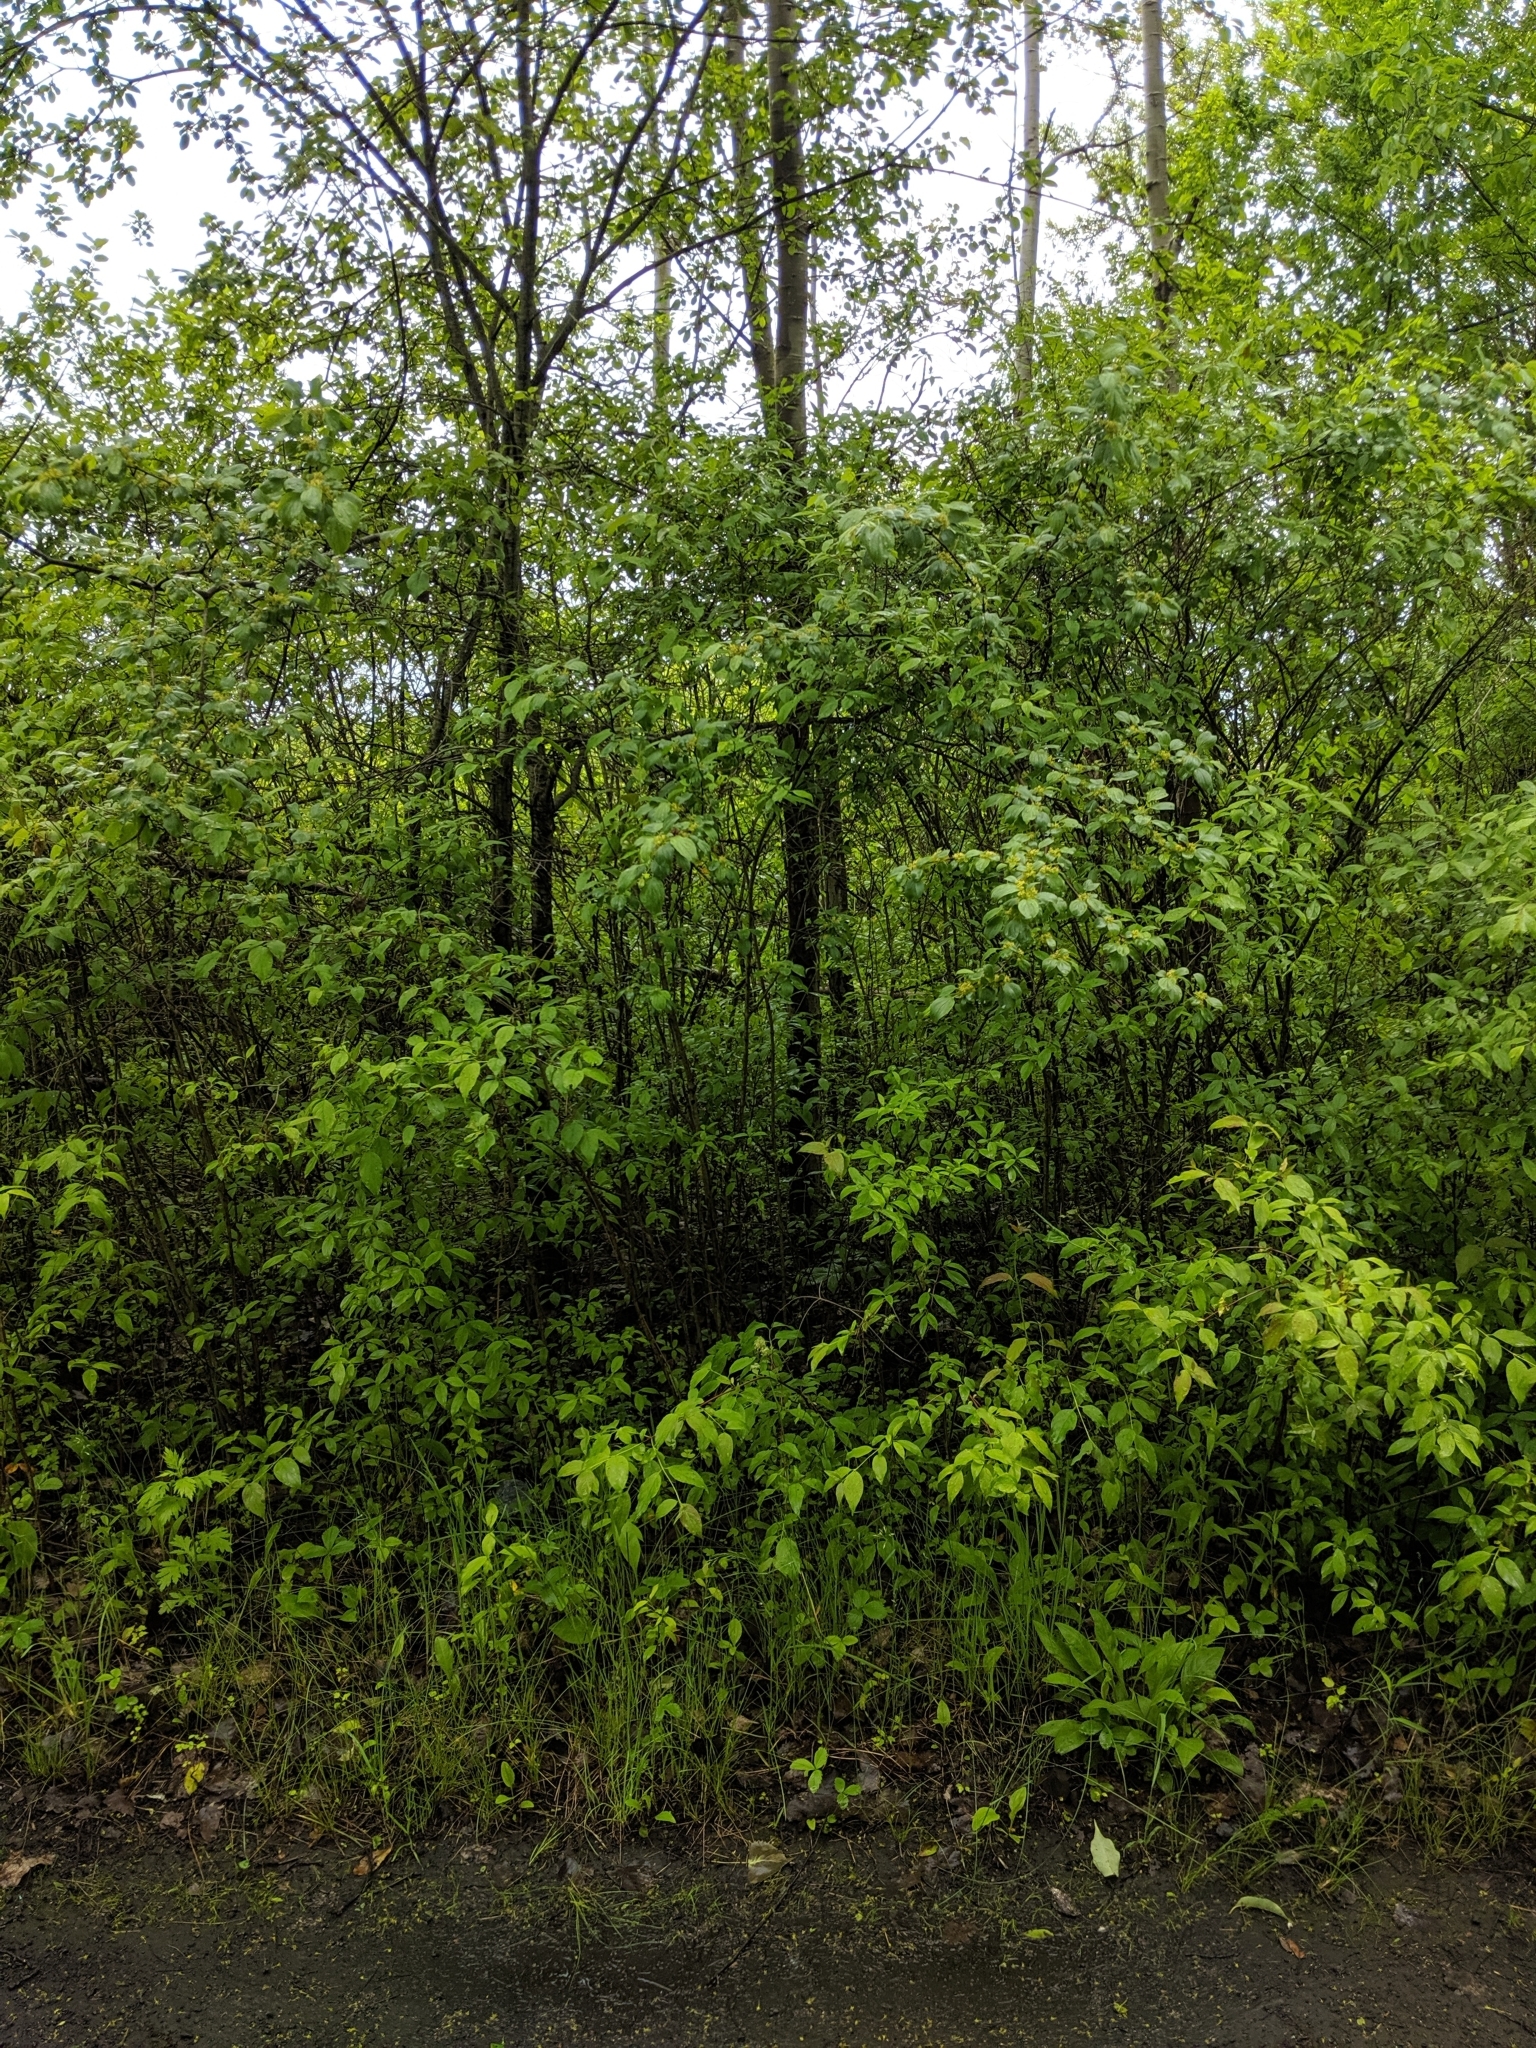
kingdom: Plantae
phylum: Tracheophyta
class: Magnoliopsida
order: Rosales
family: Rhamnaceae
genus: Rhamnus
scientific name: Rhamnus cathartica
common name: Common buckthorn
